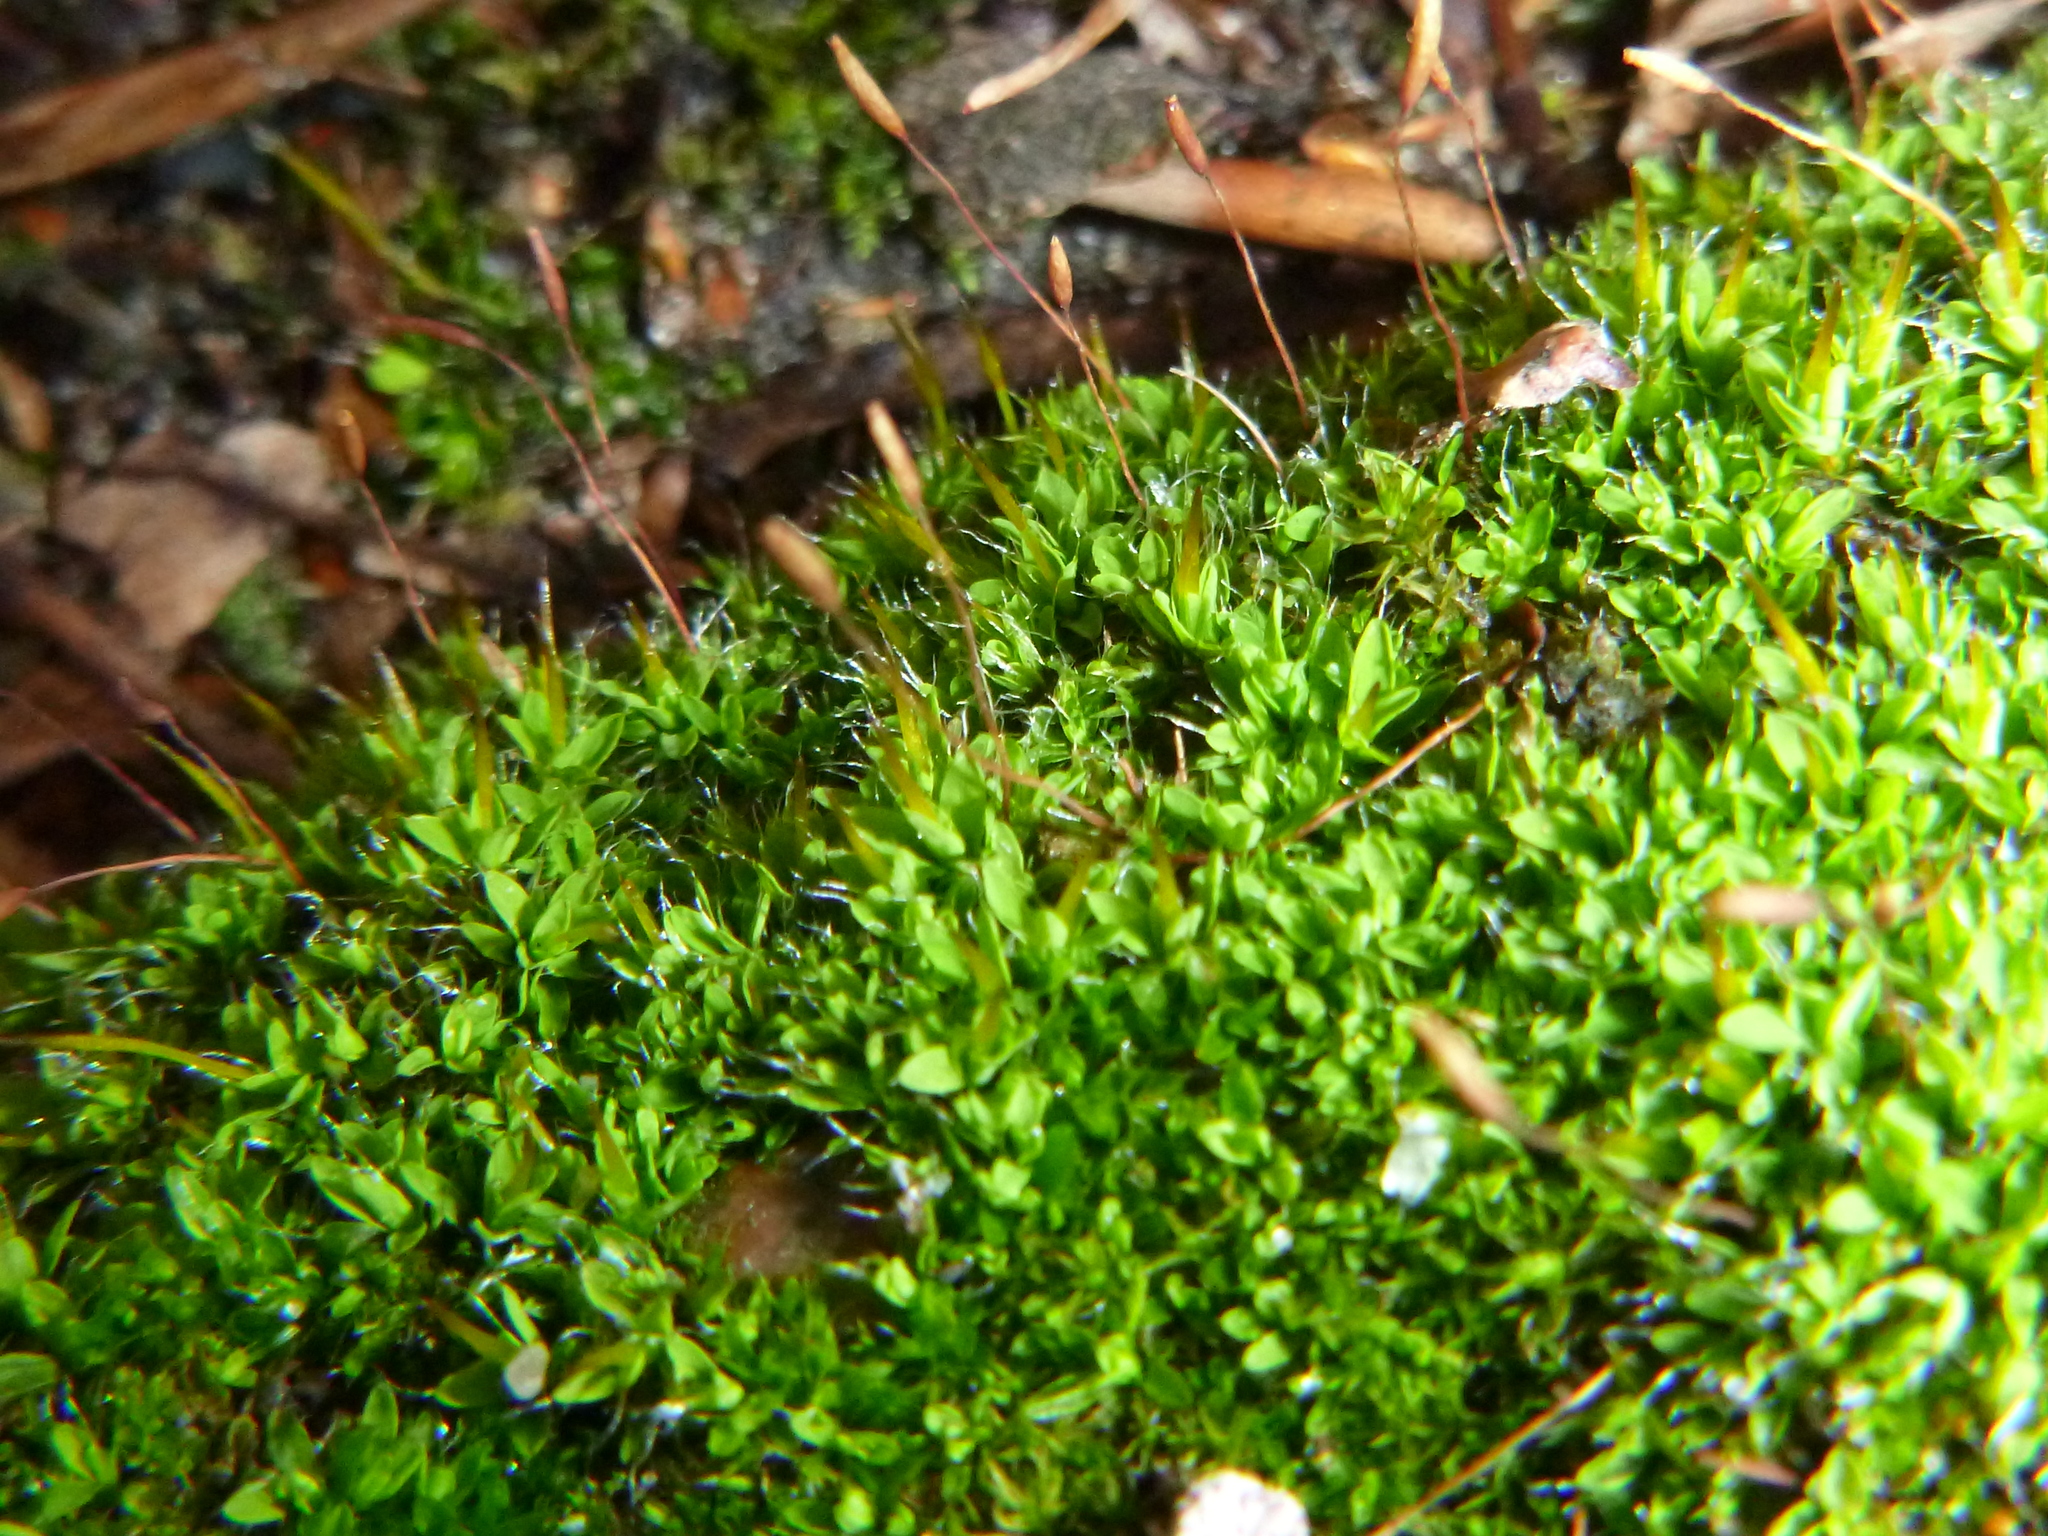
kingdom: Plantae
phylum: Bryophyta
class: Bryopsida
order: Pottiales
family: Pottiaceae
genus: Tortula
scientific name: Tortula muralis
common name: Wall screw-moss
